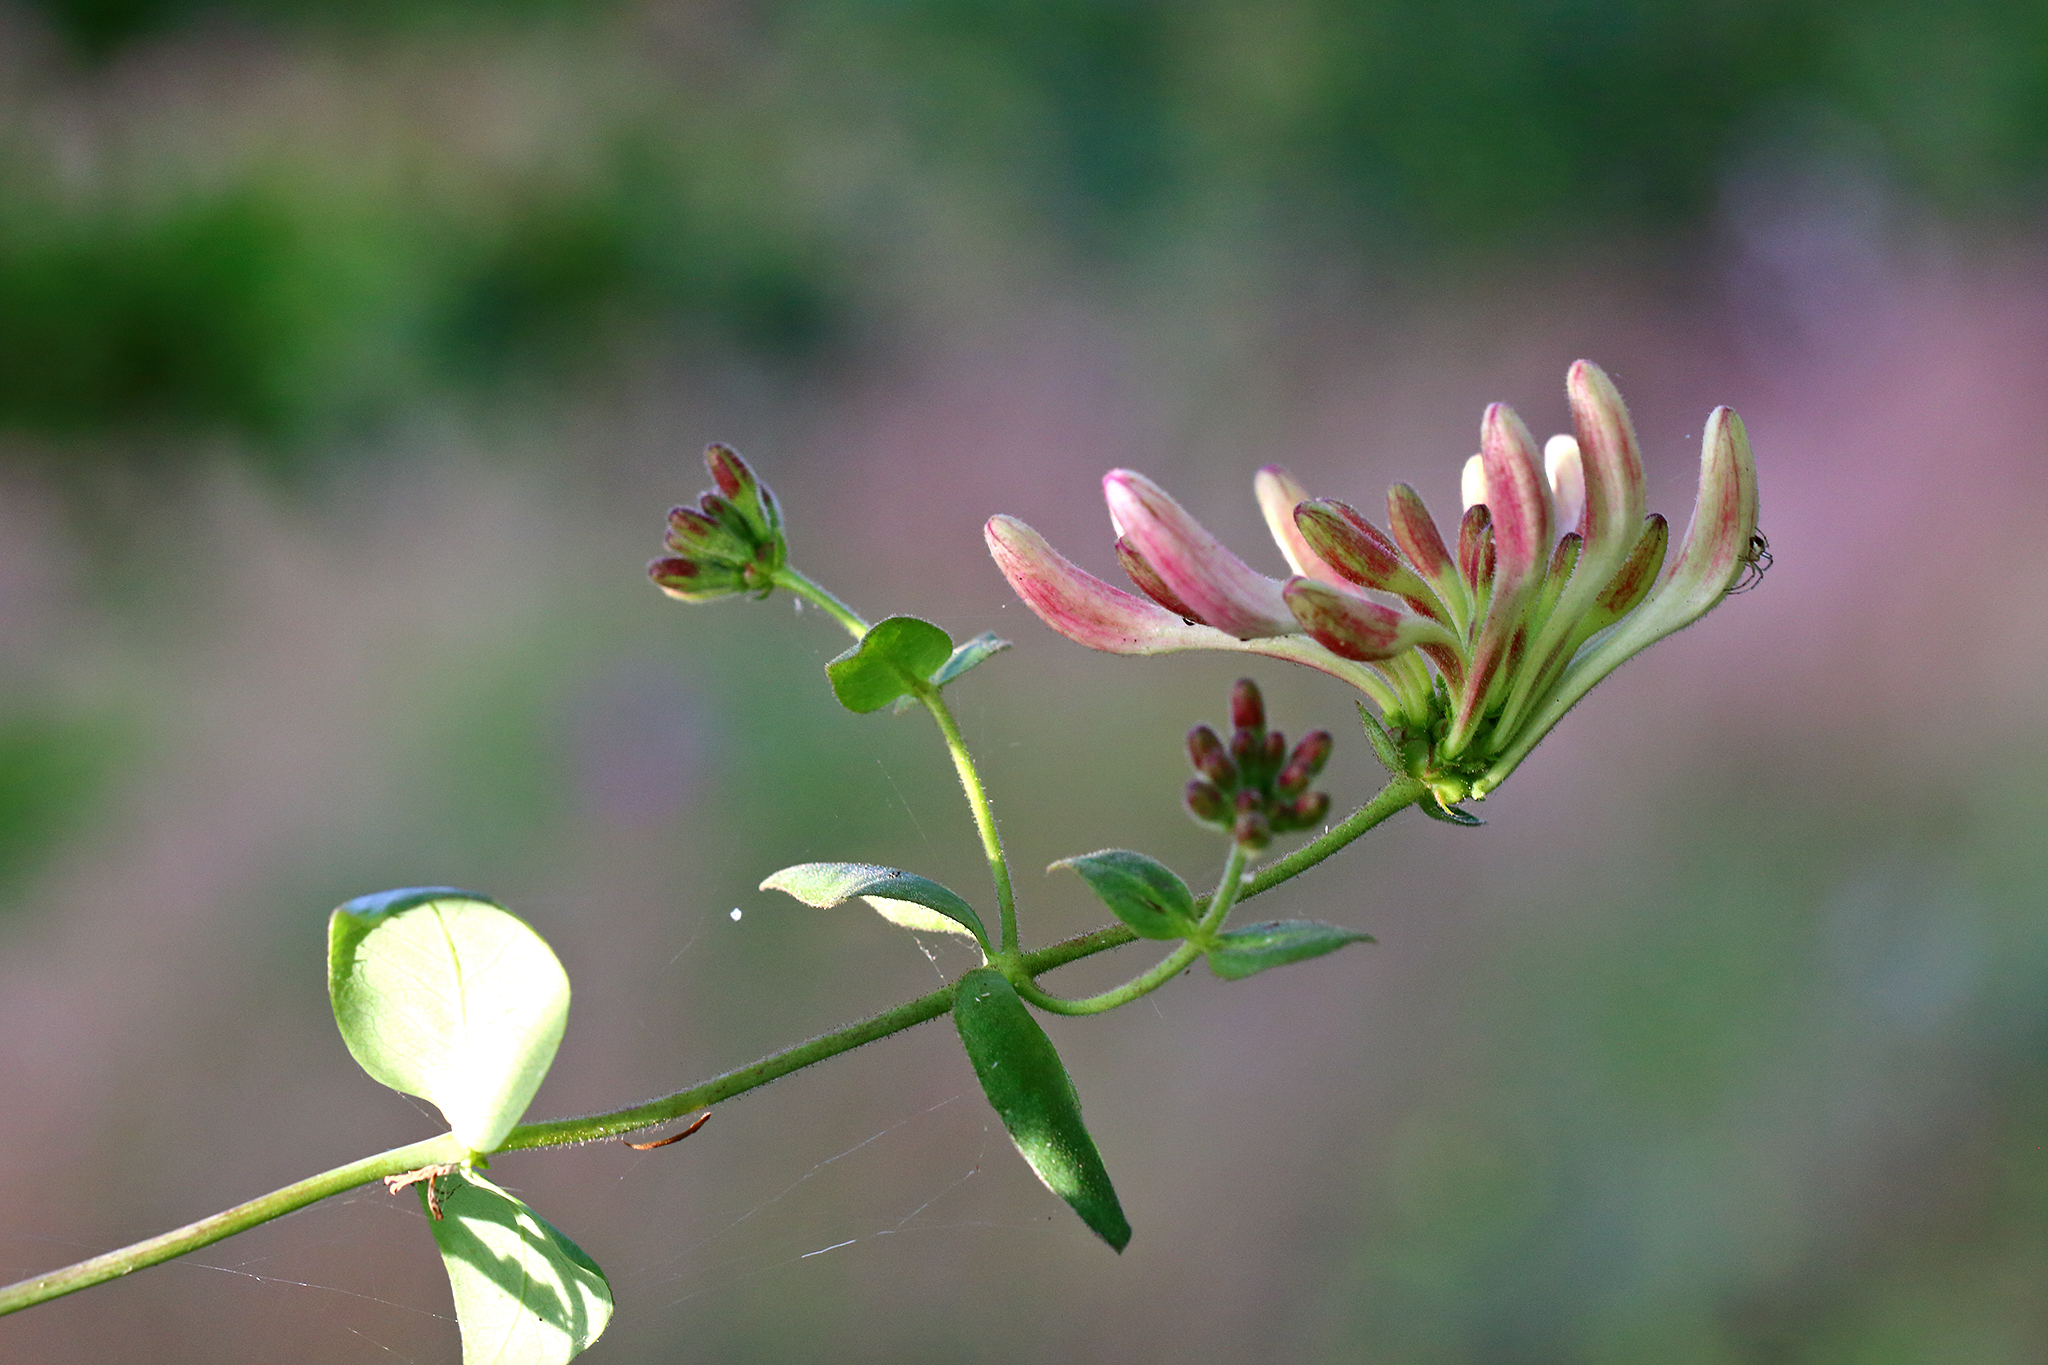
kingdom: Plantae
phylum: Tracheophyta
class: Magnoliopsida
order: Dipsacales
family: Caprifoliaceae
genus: Lonicera
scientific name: Lonicera periclymenum
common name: European honeysuckle
